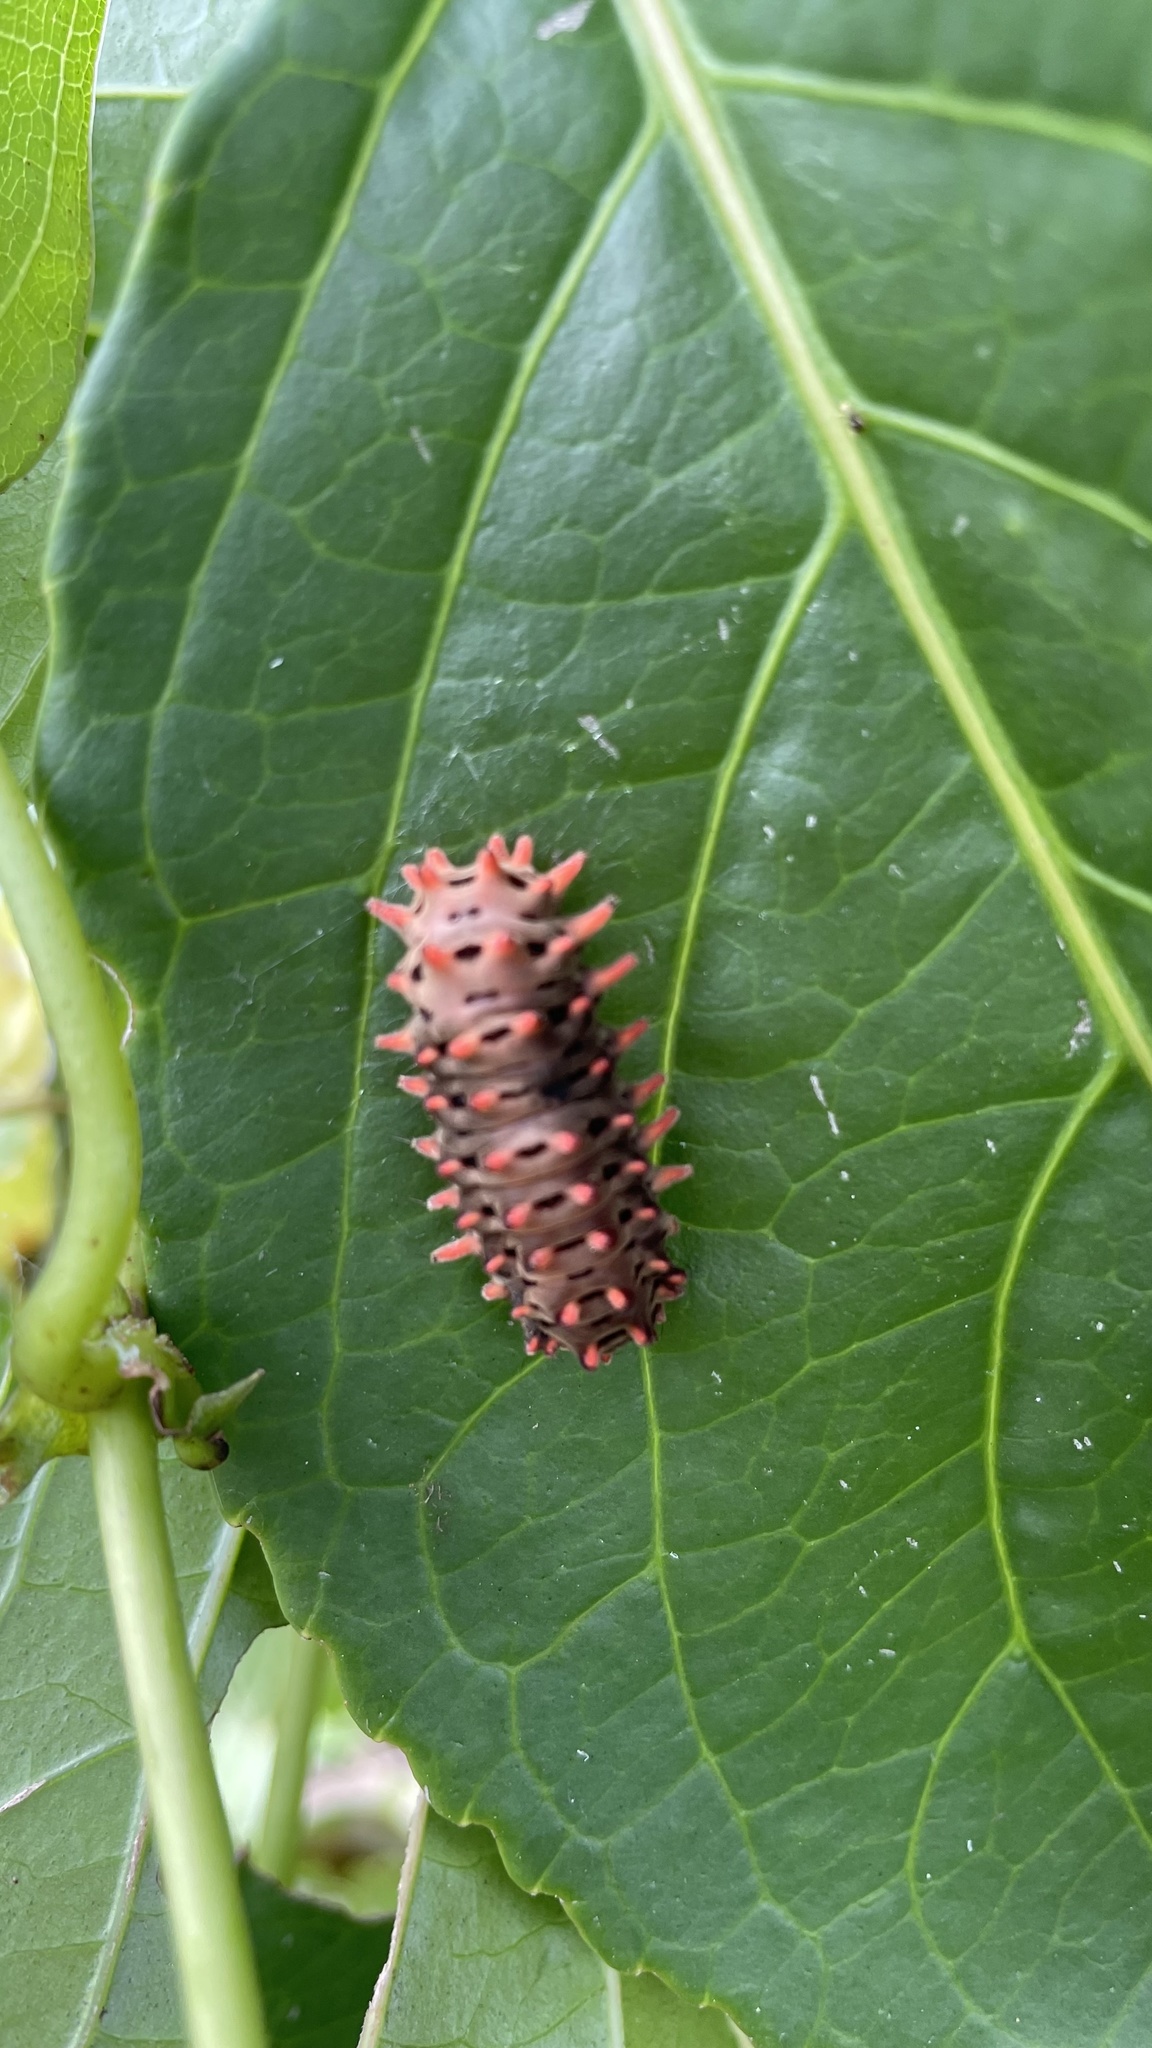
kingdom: Animalia
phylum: Arthropoda
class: Insecta
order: Lepidoptera
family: Zygaenidae
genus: Histia
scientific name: Histia flabellicornis
